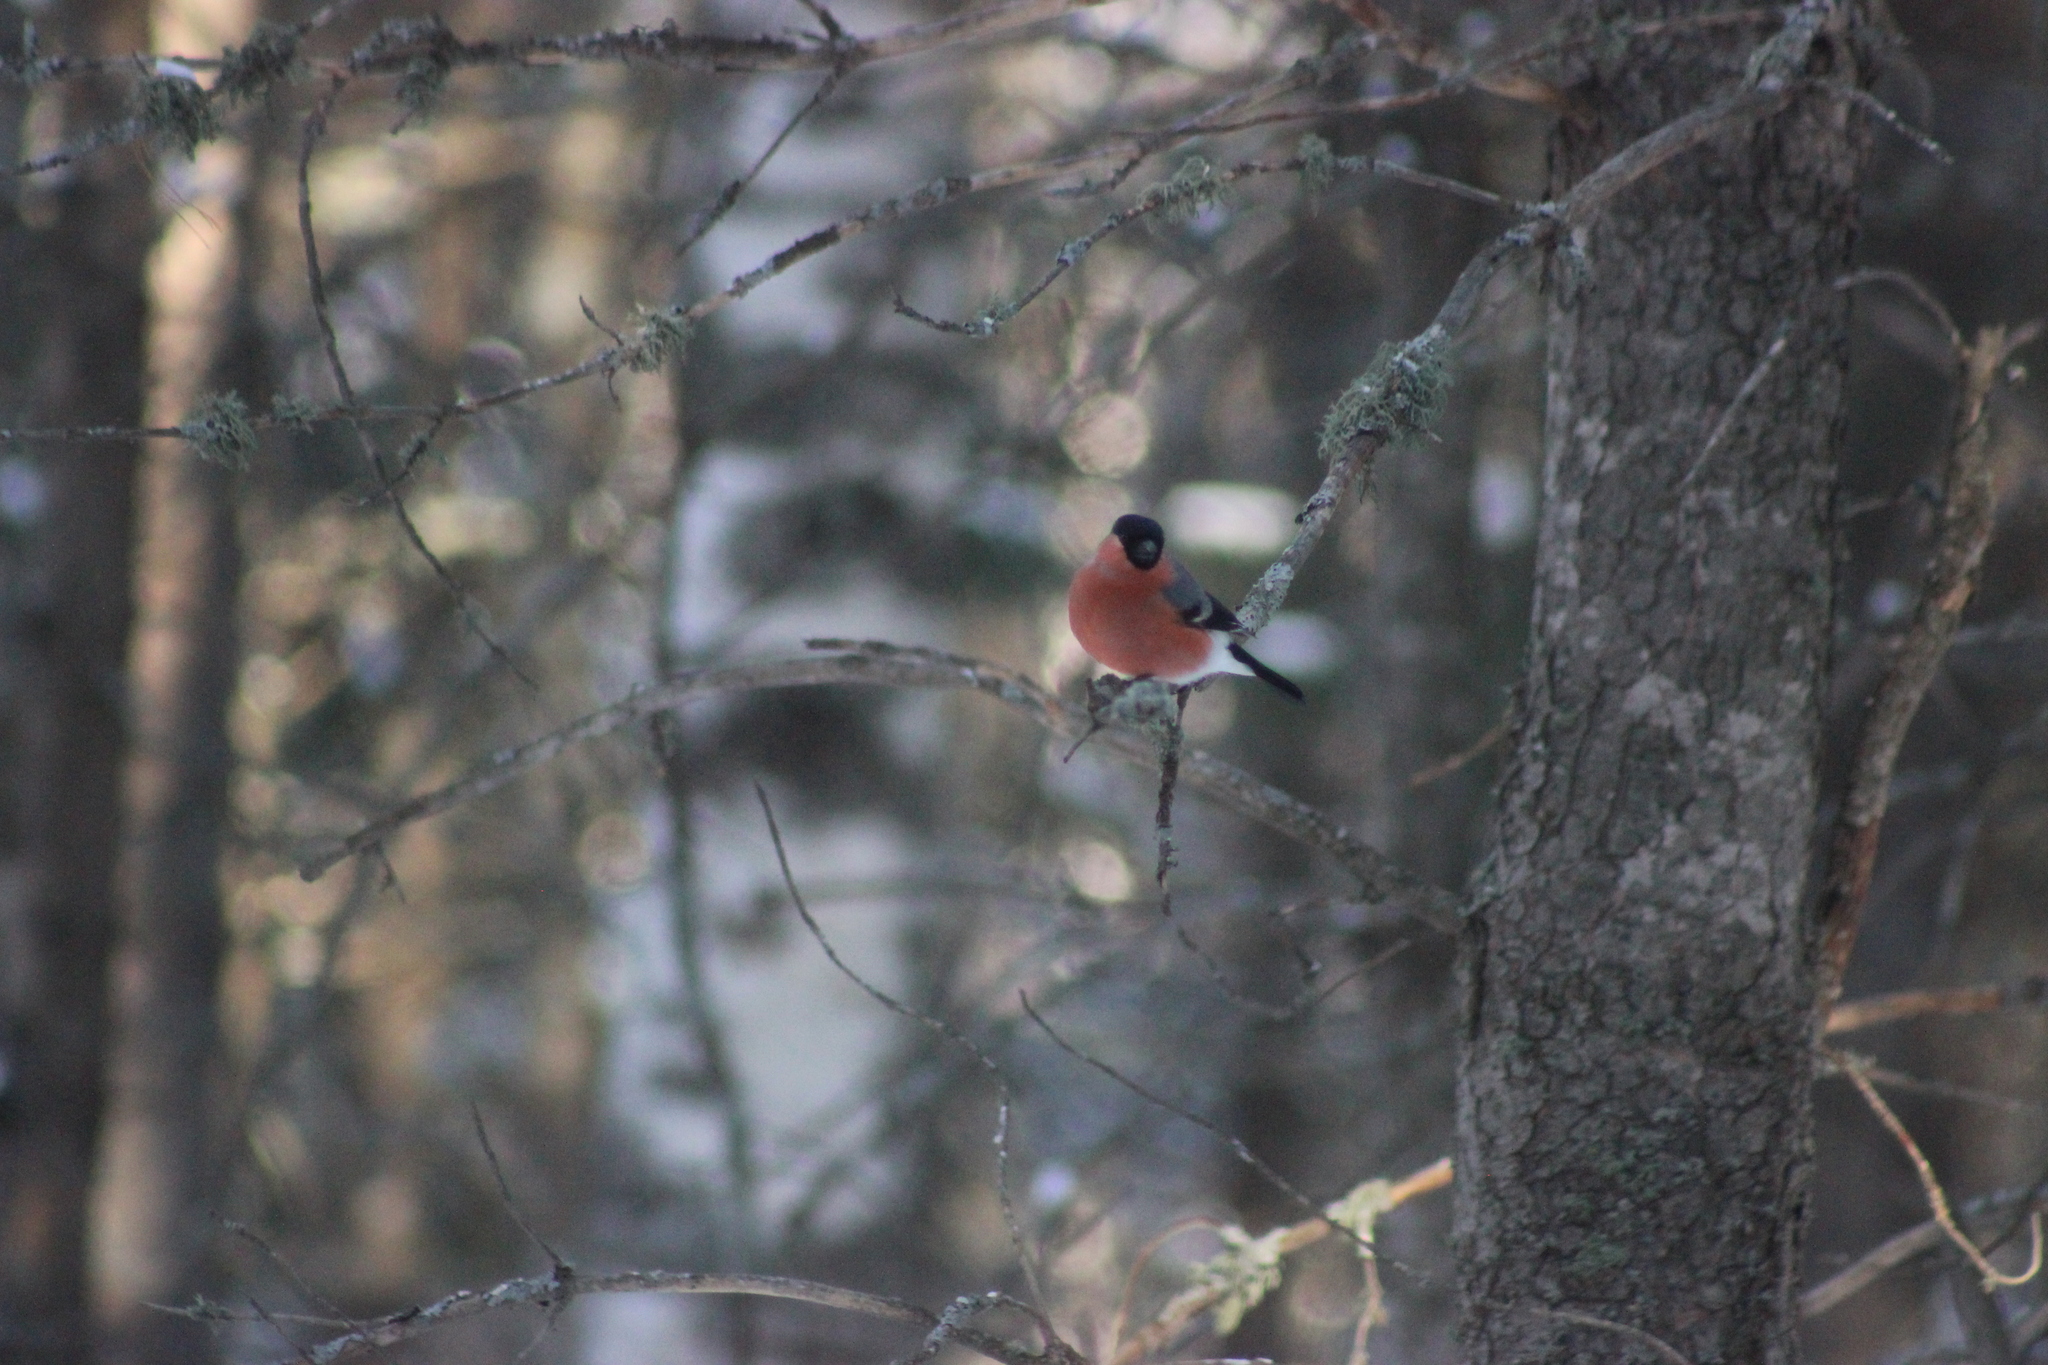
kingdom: Animalia
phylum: Chordata
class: Aves
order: Passeriformes
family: Fringillidae
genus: Pyrrhula
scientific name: Pyrrhula pyrrhula
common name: Eurasian bullfinch
